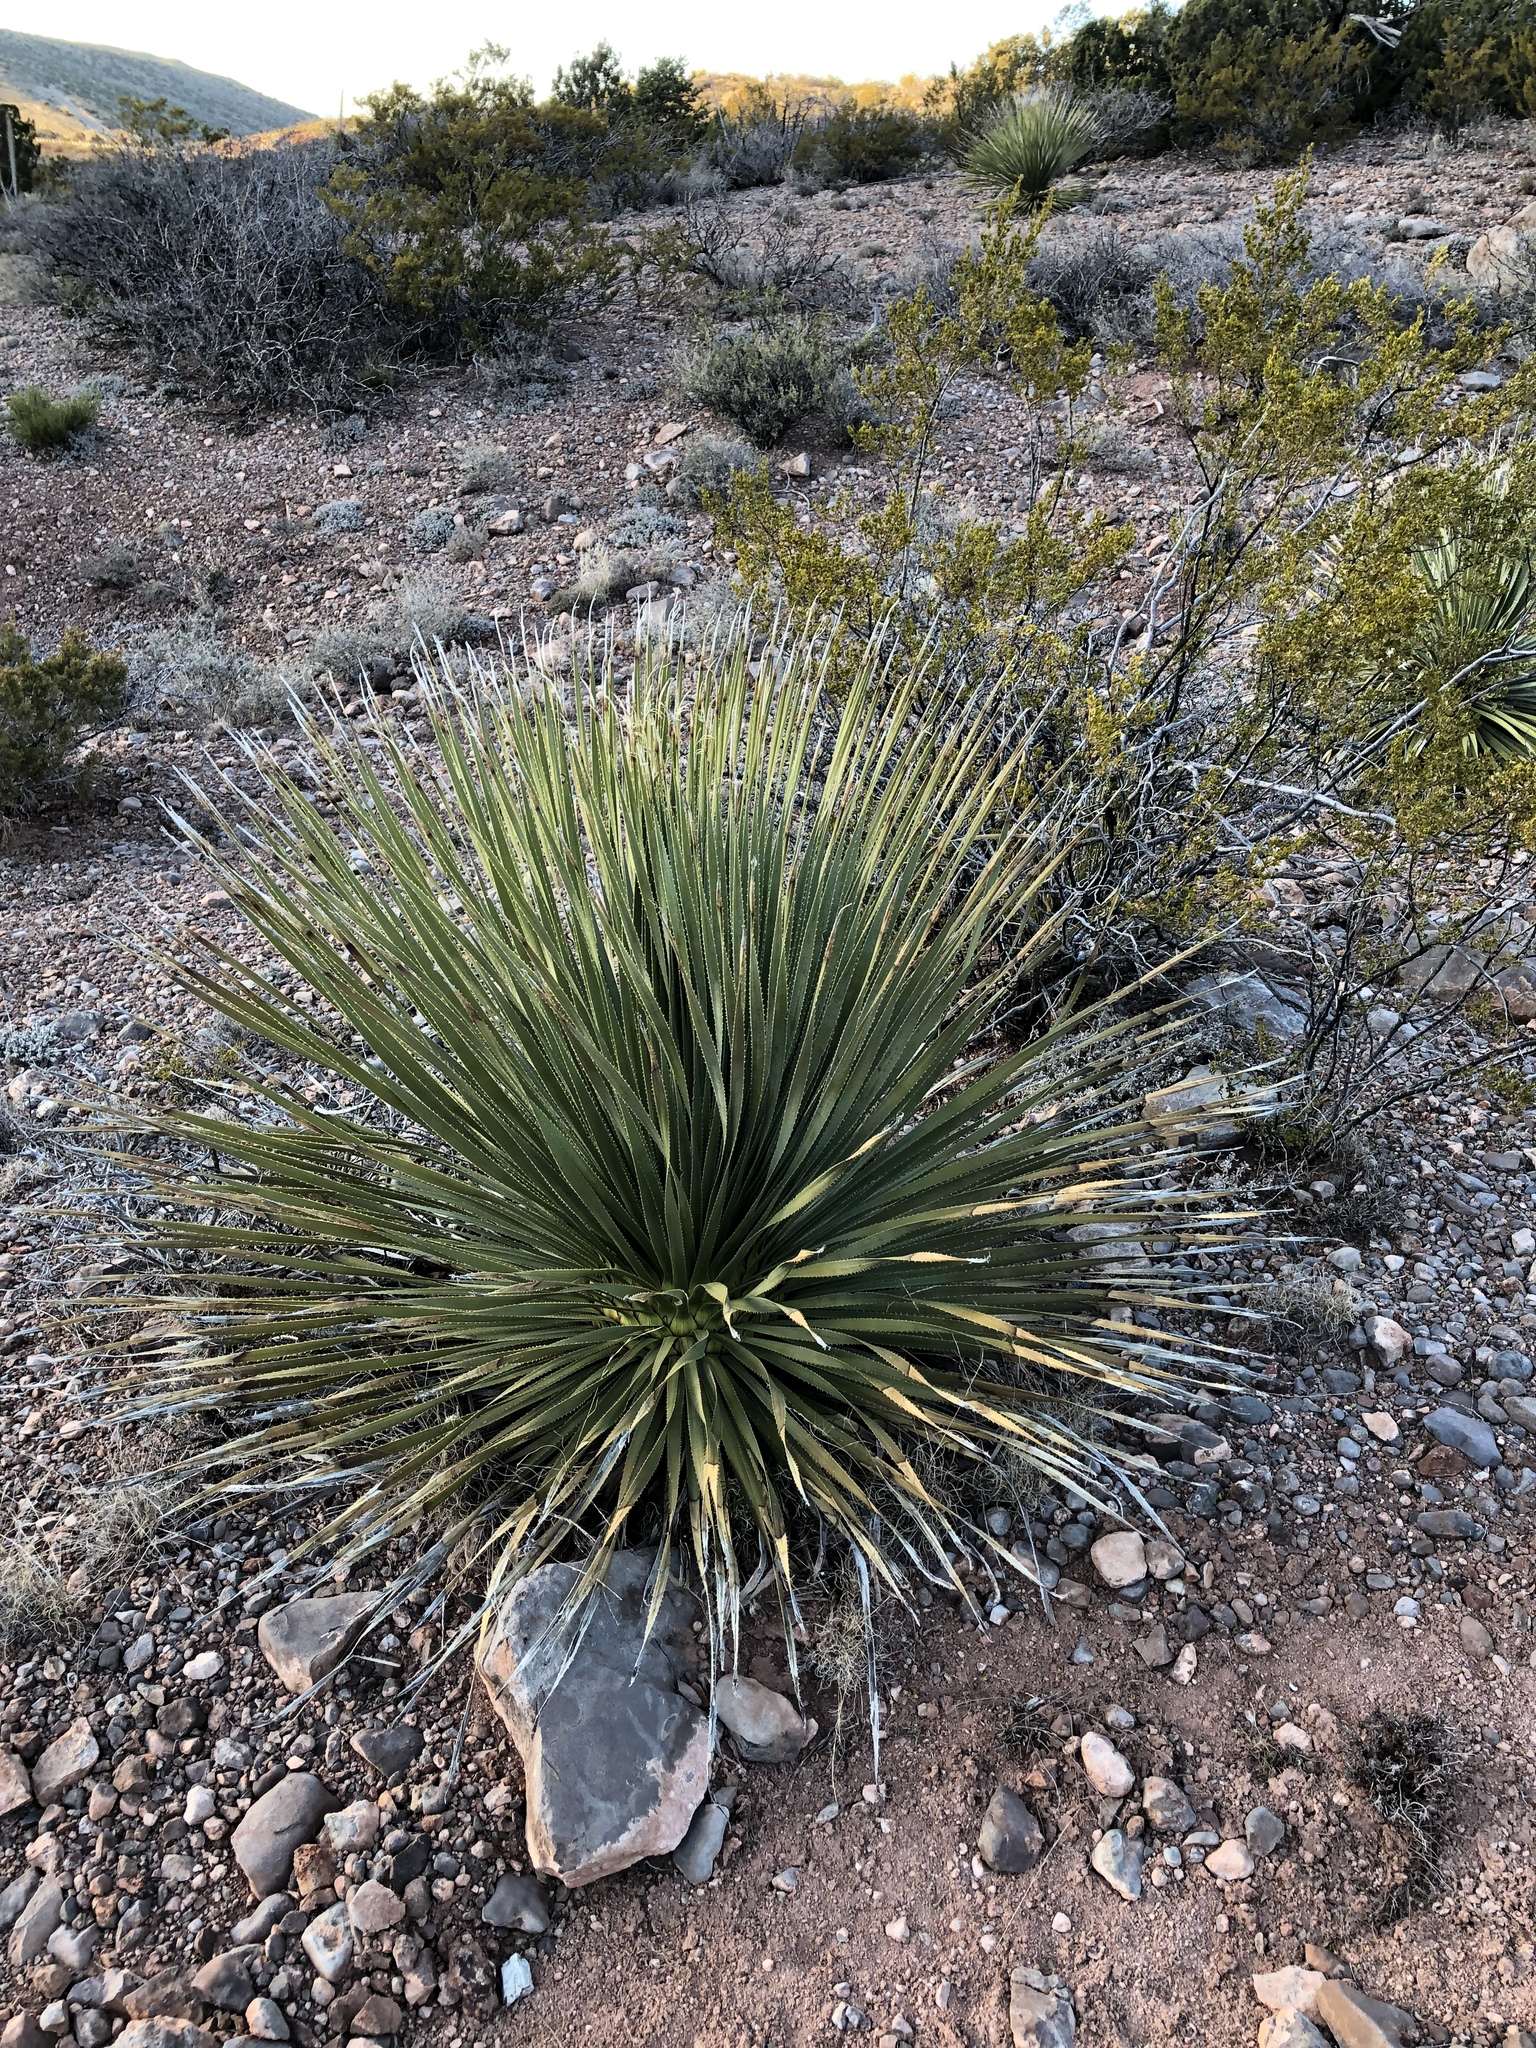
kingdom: Plantae
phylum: Tracheophyta
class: Liliopsida
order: Asparagales
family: Asparagaceae
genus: Dasylirion
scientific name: Dasylirion wheeleri
